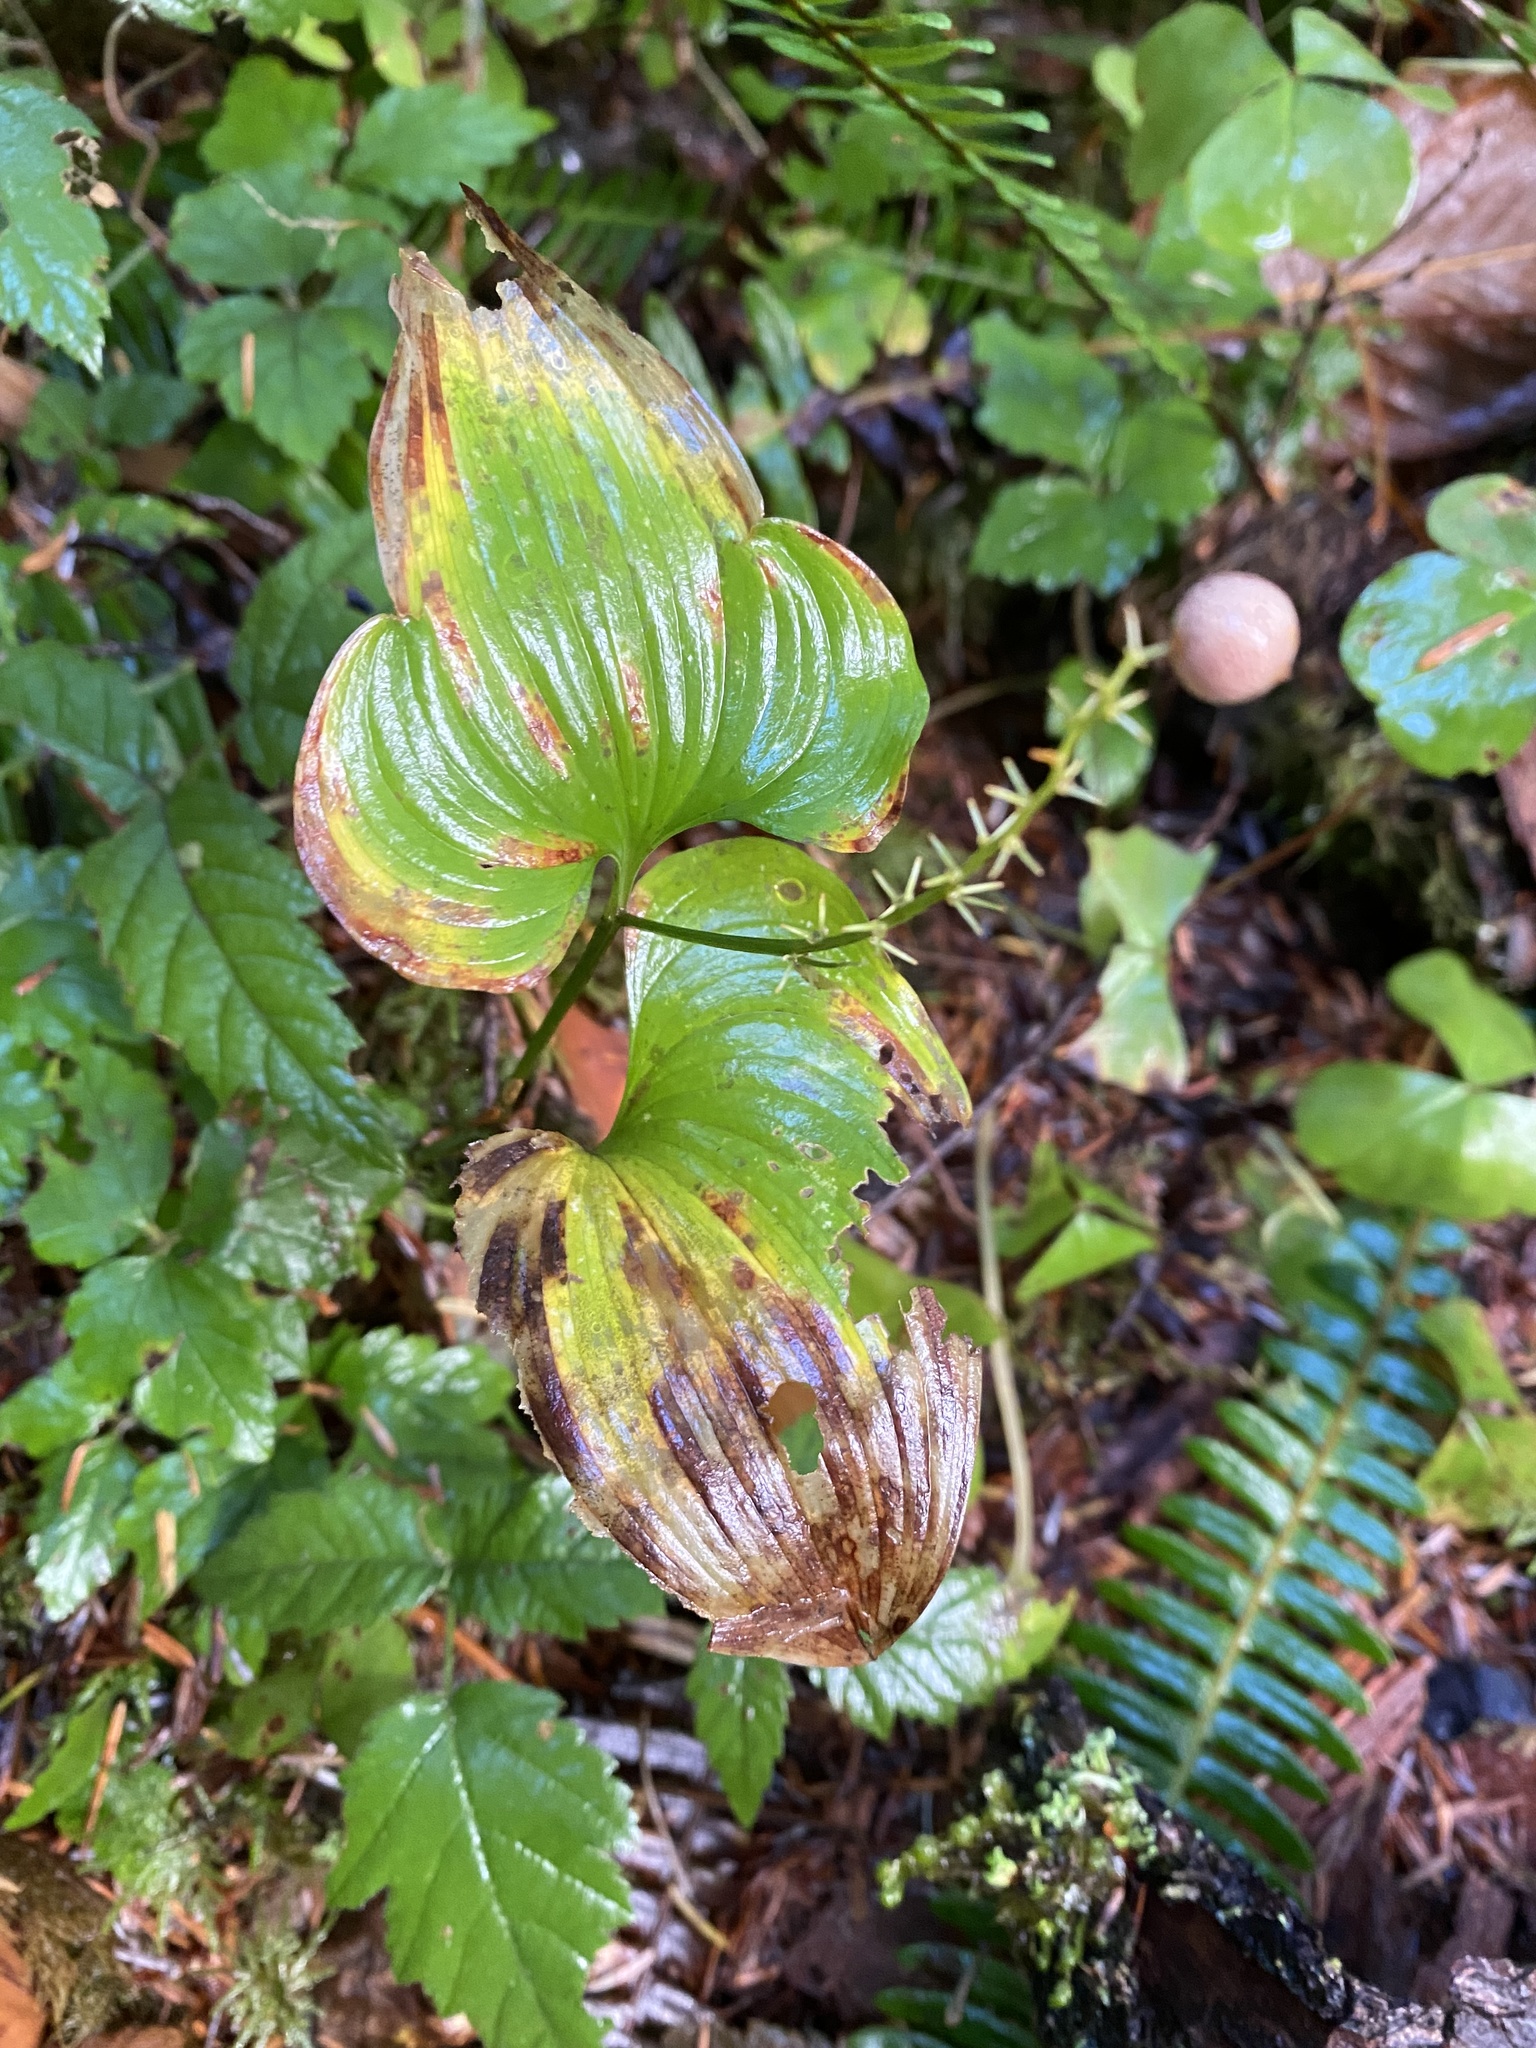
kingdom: Plantae
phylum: Tracheophyta
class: Liliopsida
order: Asparagales
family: Asparagaceae
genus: Maianthemum
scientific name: Maianthemum dilatatum
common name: False lily-of-the-valley
